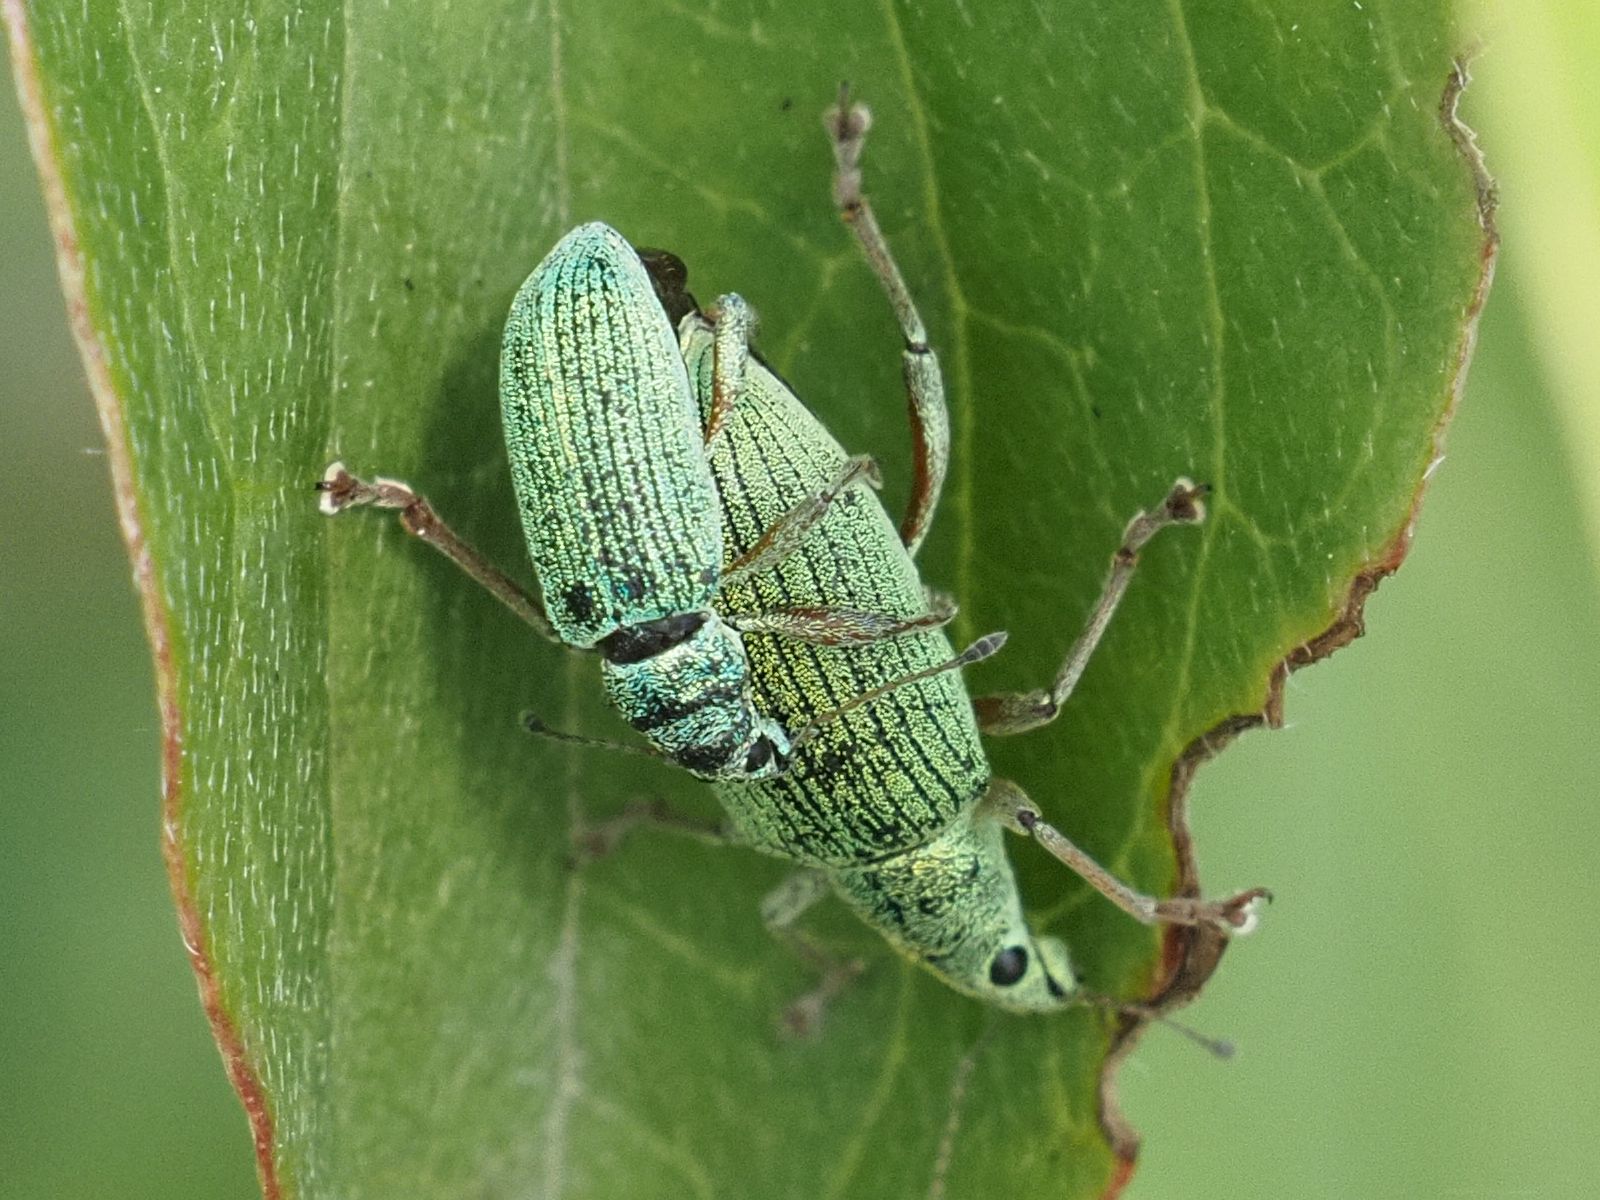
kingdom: Animalia
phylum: Arthropoda
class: Insecta
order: Coleoptera
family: Curculionidae
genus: Polydrusus
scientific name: Polydrusus formosus
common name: Weevil
